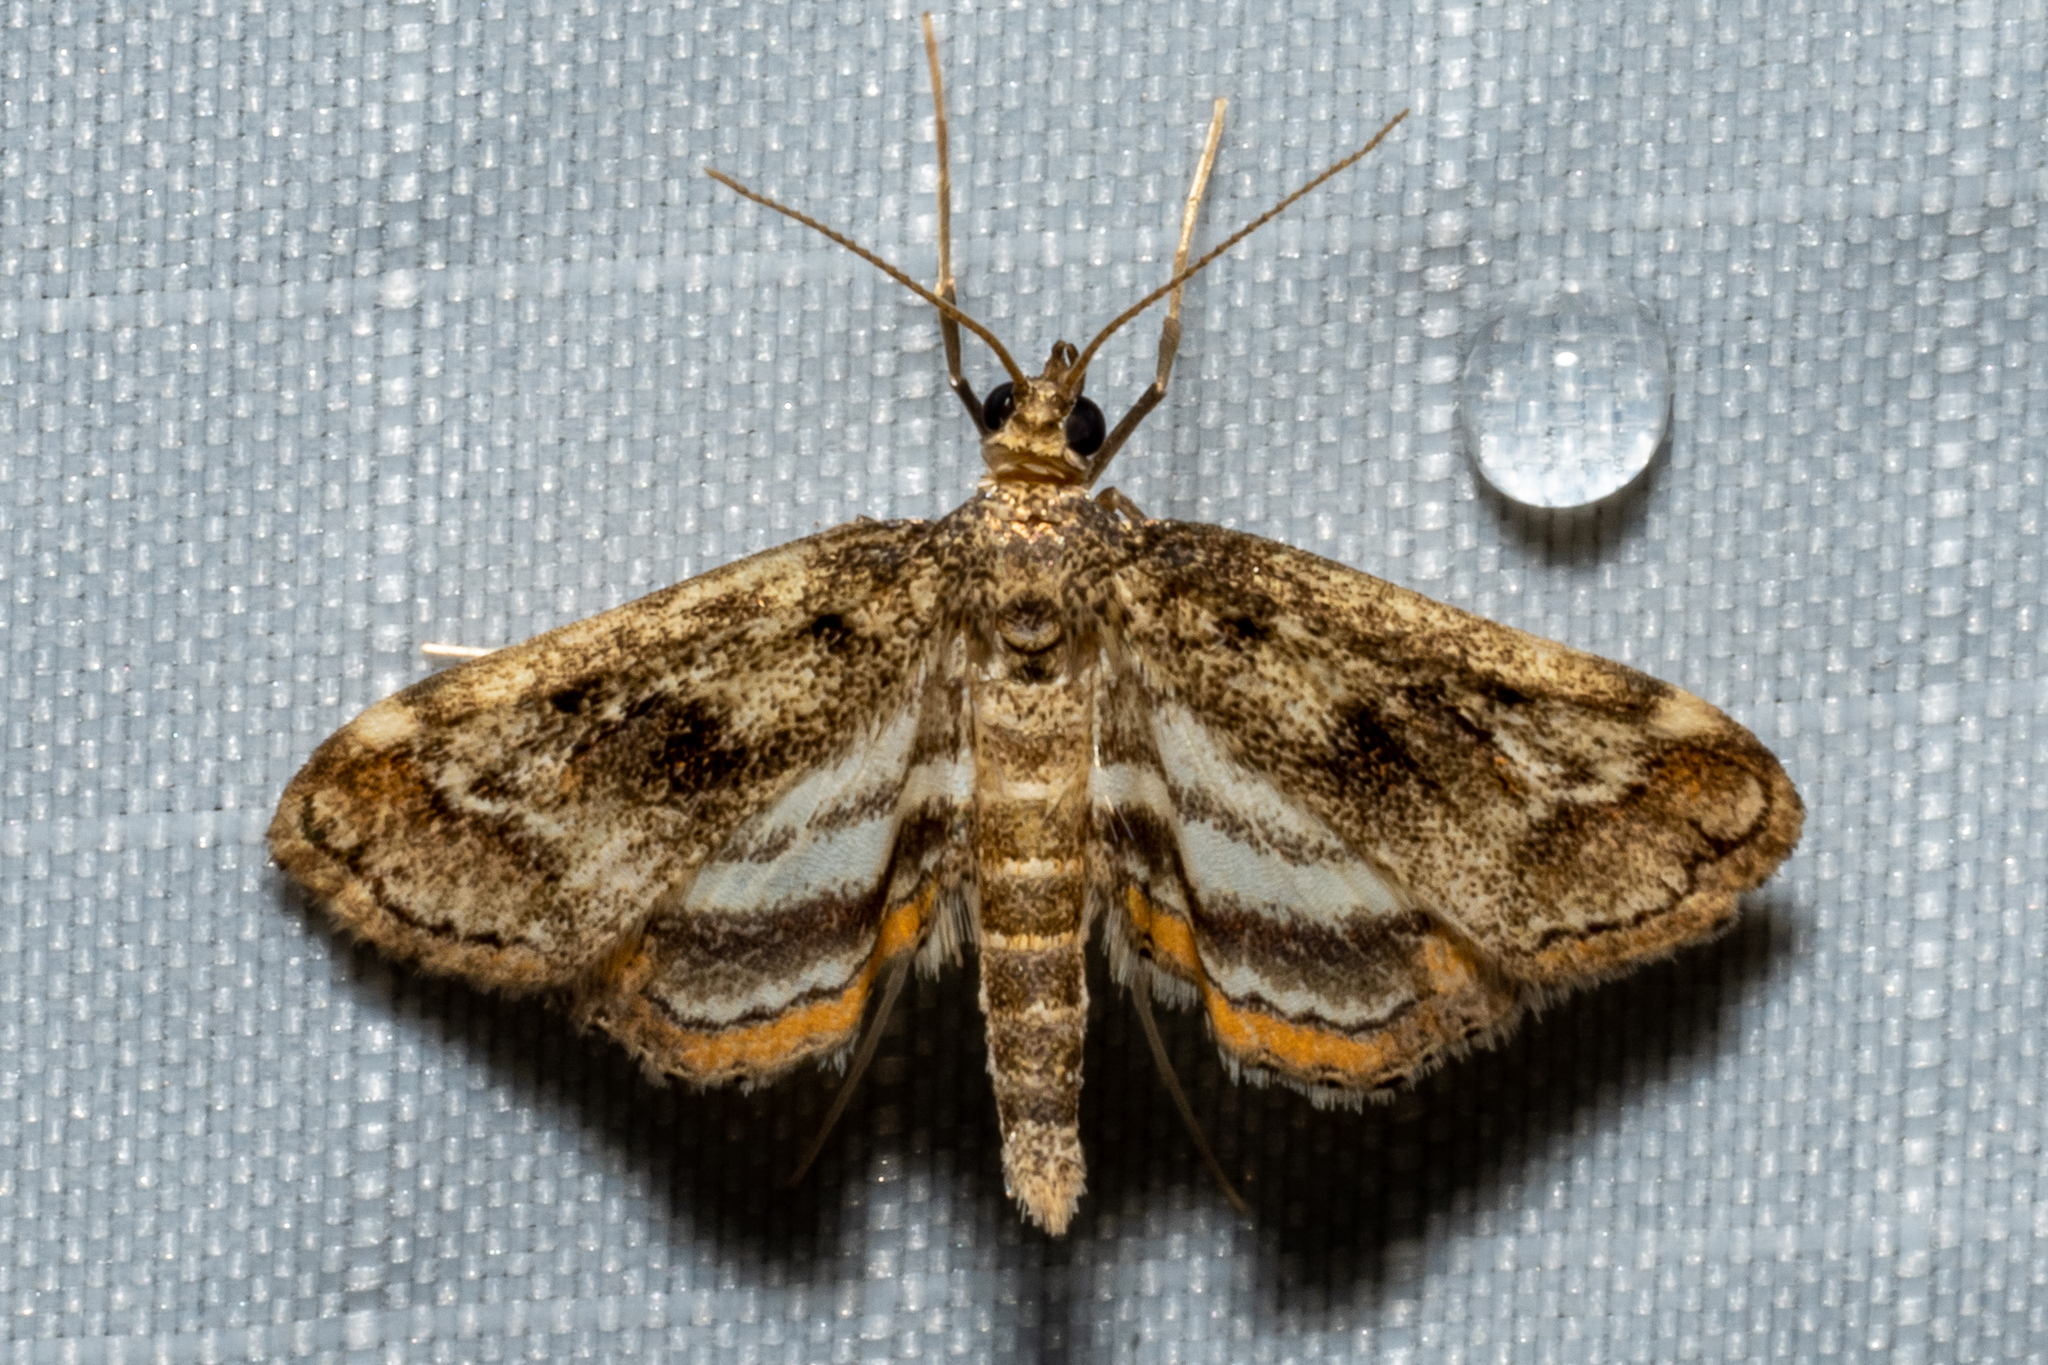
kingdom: Animalia
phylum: Arthropoda
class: Insecta
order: Lepidoptera
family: Crambidae
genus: Parapoynx
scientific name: Parapoynx obscuralis
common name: American china-mark
